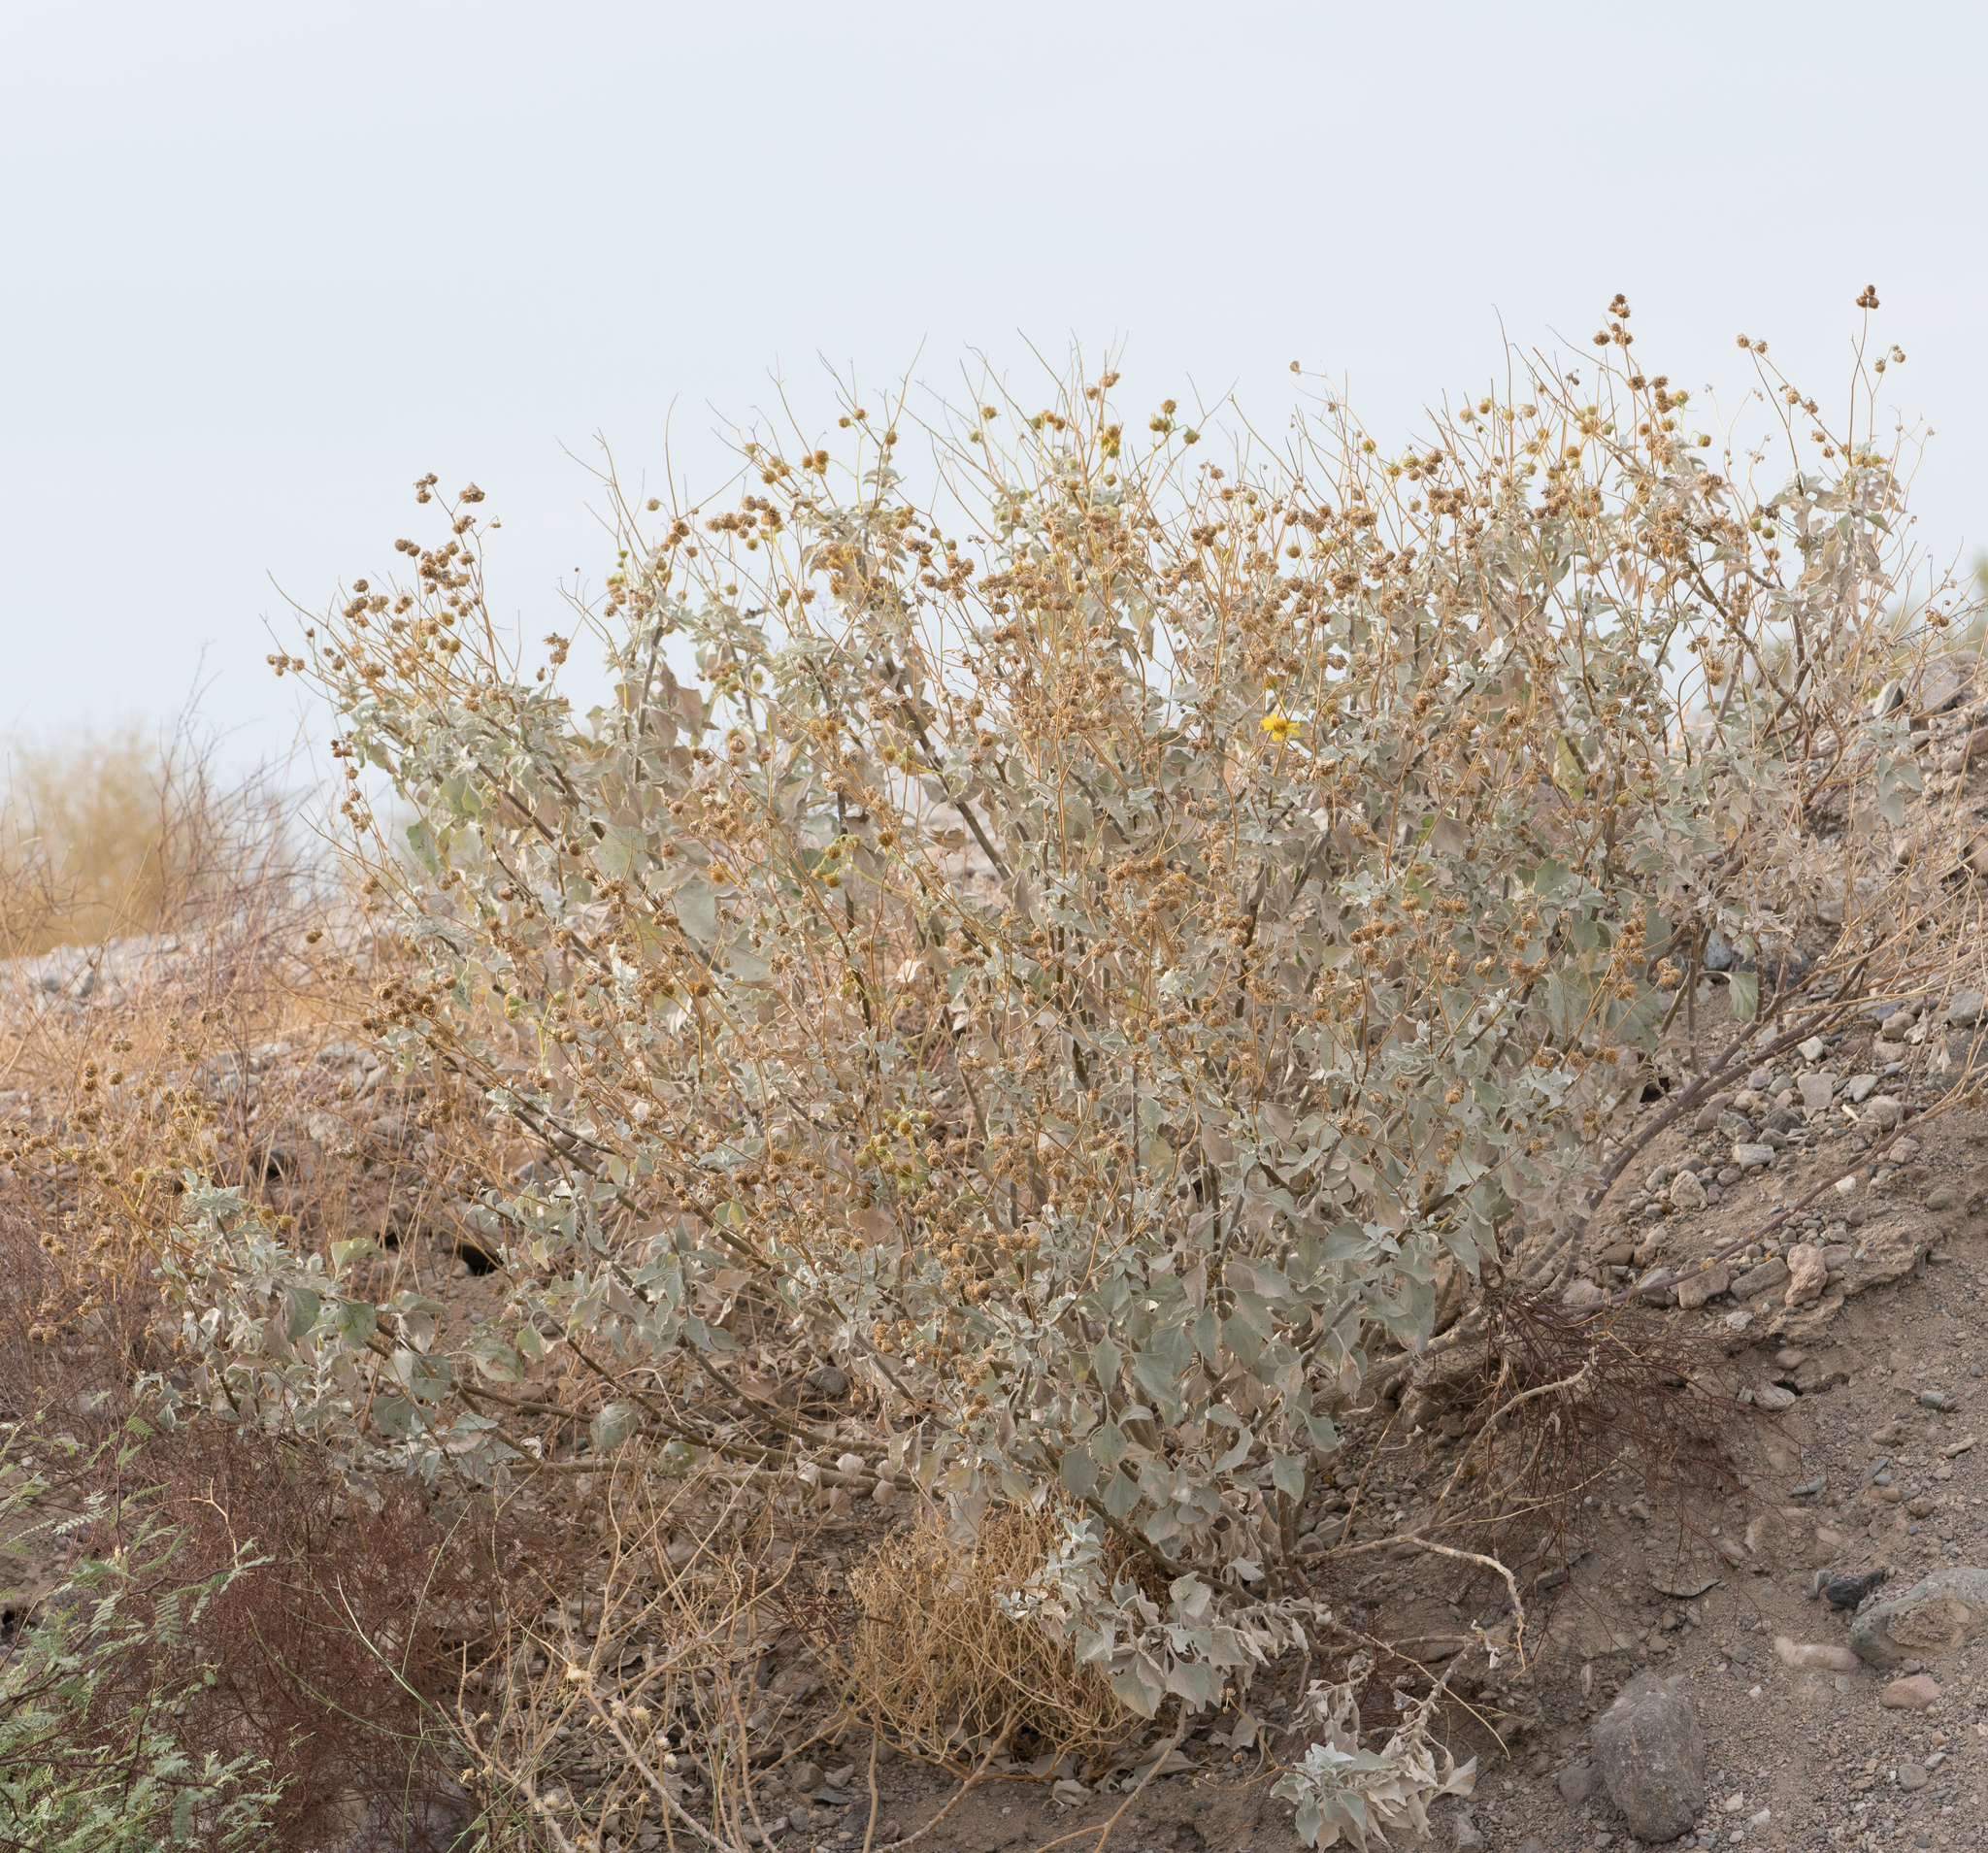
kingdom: Plantae
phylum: Tracheophyta
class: Magnoliopsida
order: Asterales
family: Asteraceae
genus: Encelia
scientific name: Encelia farinosa
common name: Brittlebush
